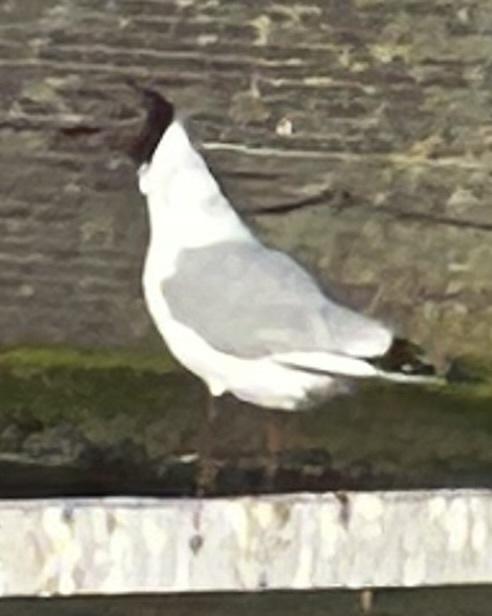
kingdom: Animalia
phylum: Chordata
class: Aves
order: Charadriiformes
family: Laridae
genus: Chroicocephalus
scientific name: Chroicocephalus ridibundus
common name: Black-headed gull
